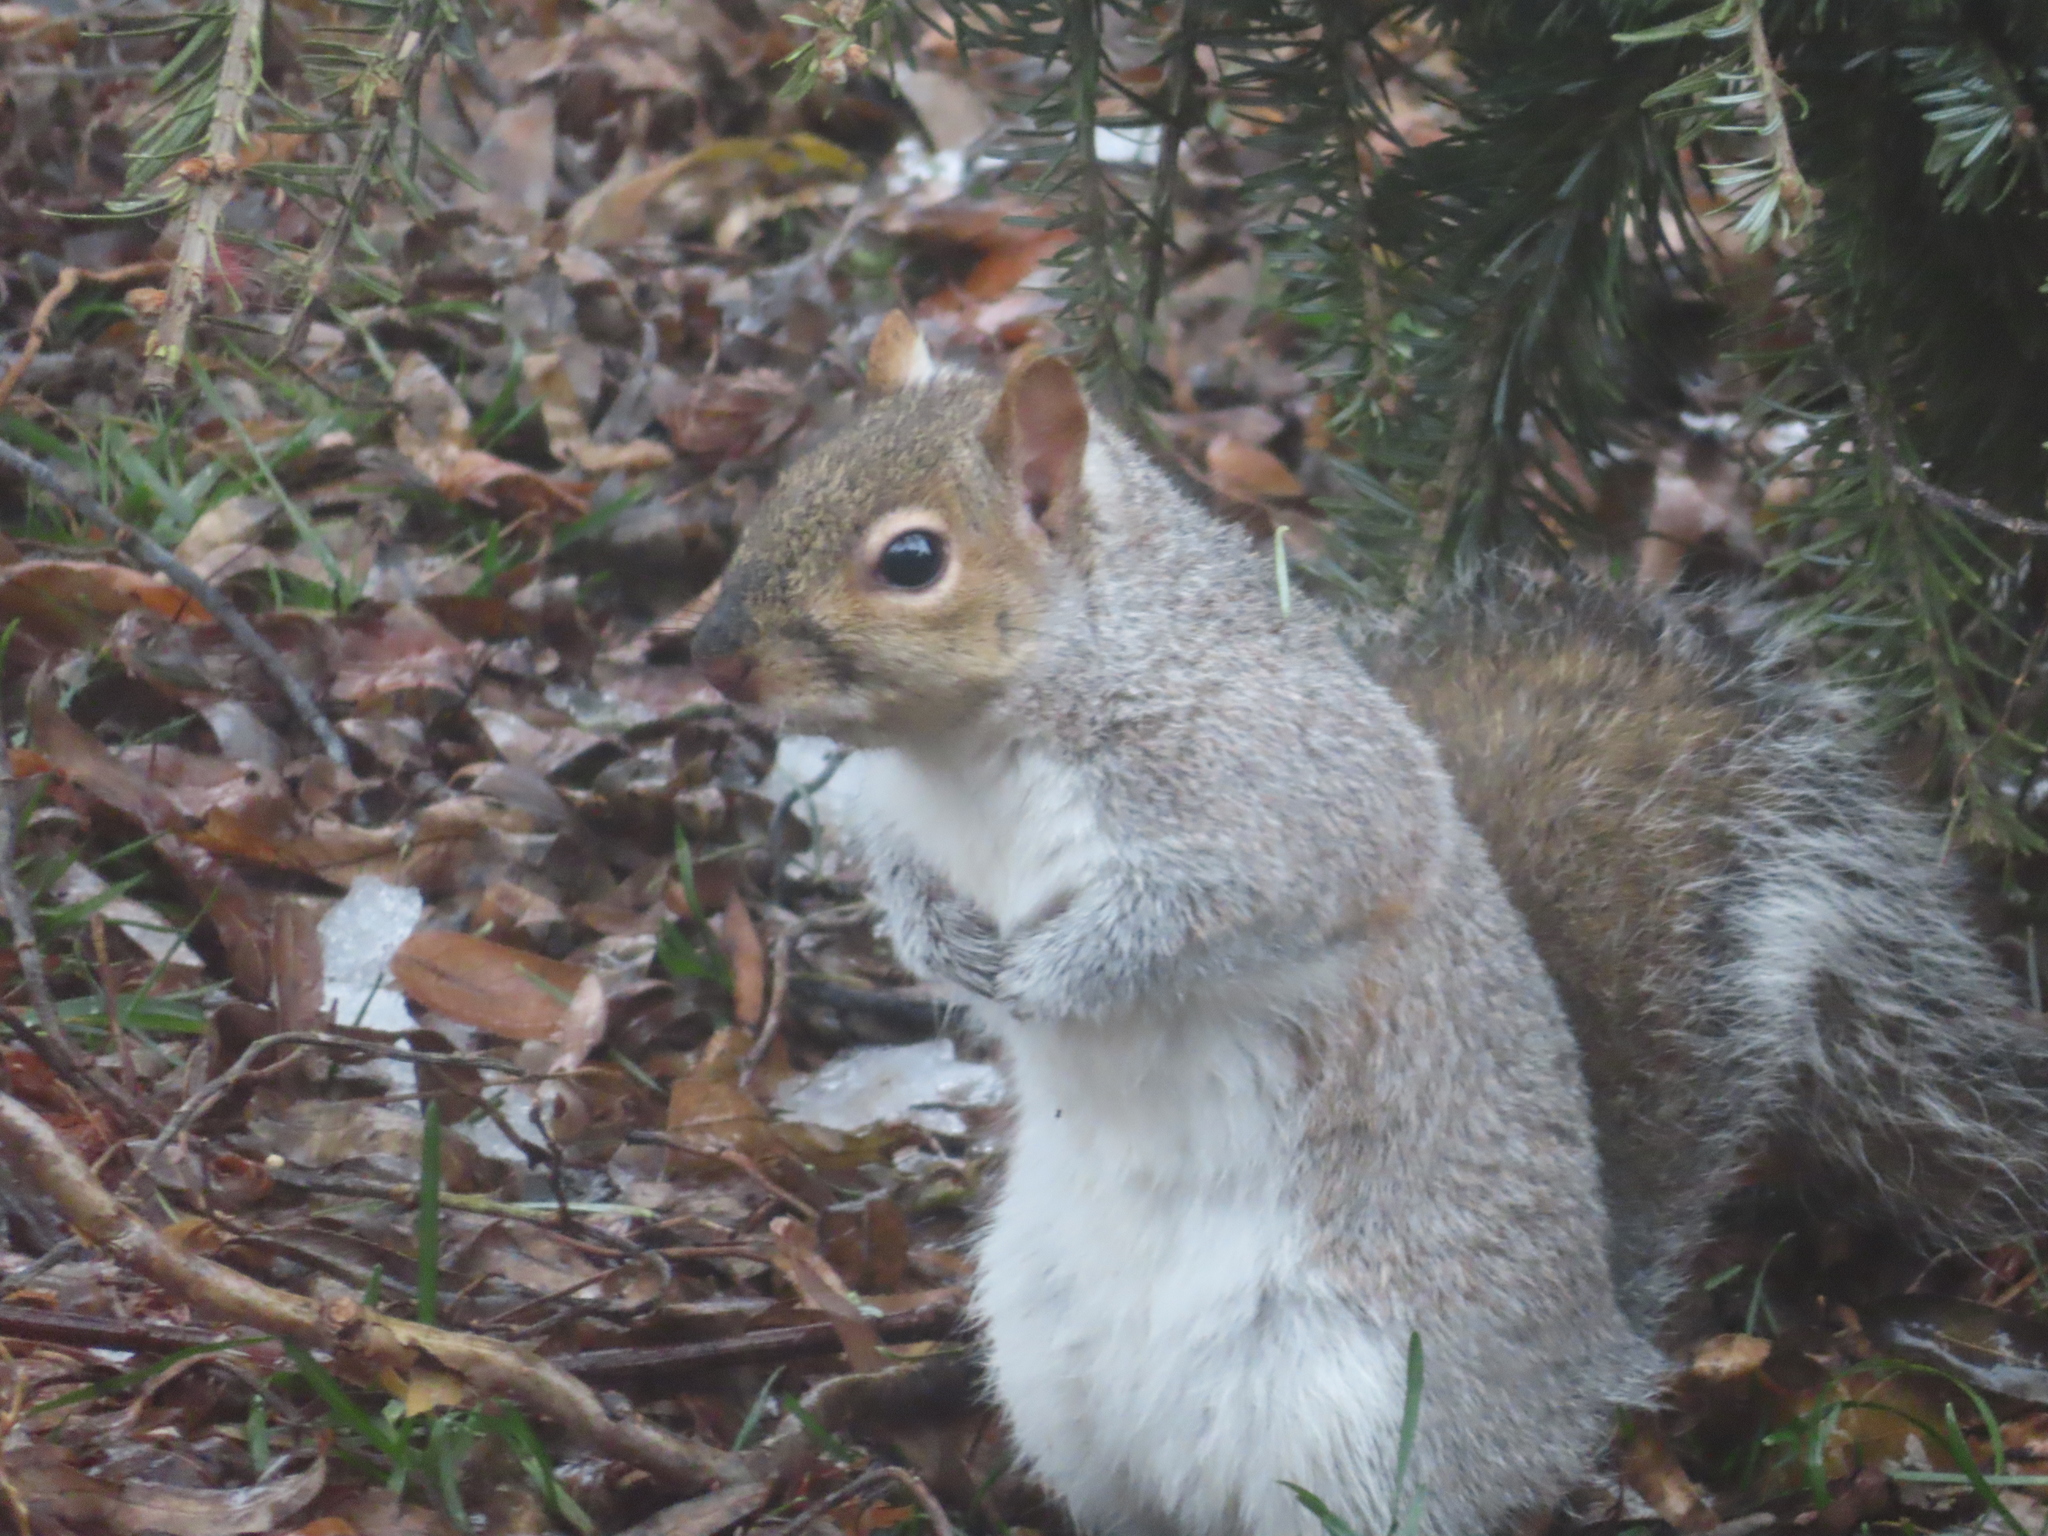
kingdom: Animalia
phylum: Chordata
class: Mammalia
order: Rodentia
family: Sciuridae
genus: Sciurus
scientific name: Sciurus carolinensis
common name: Eastern gray squirrel
